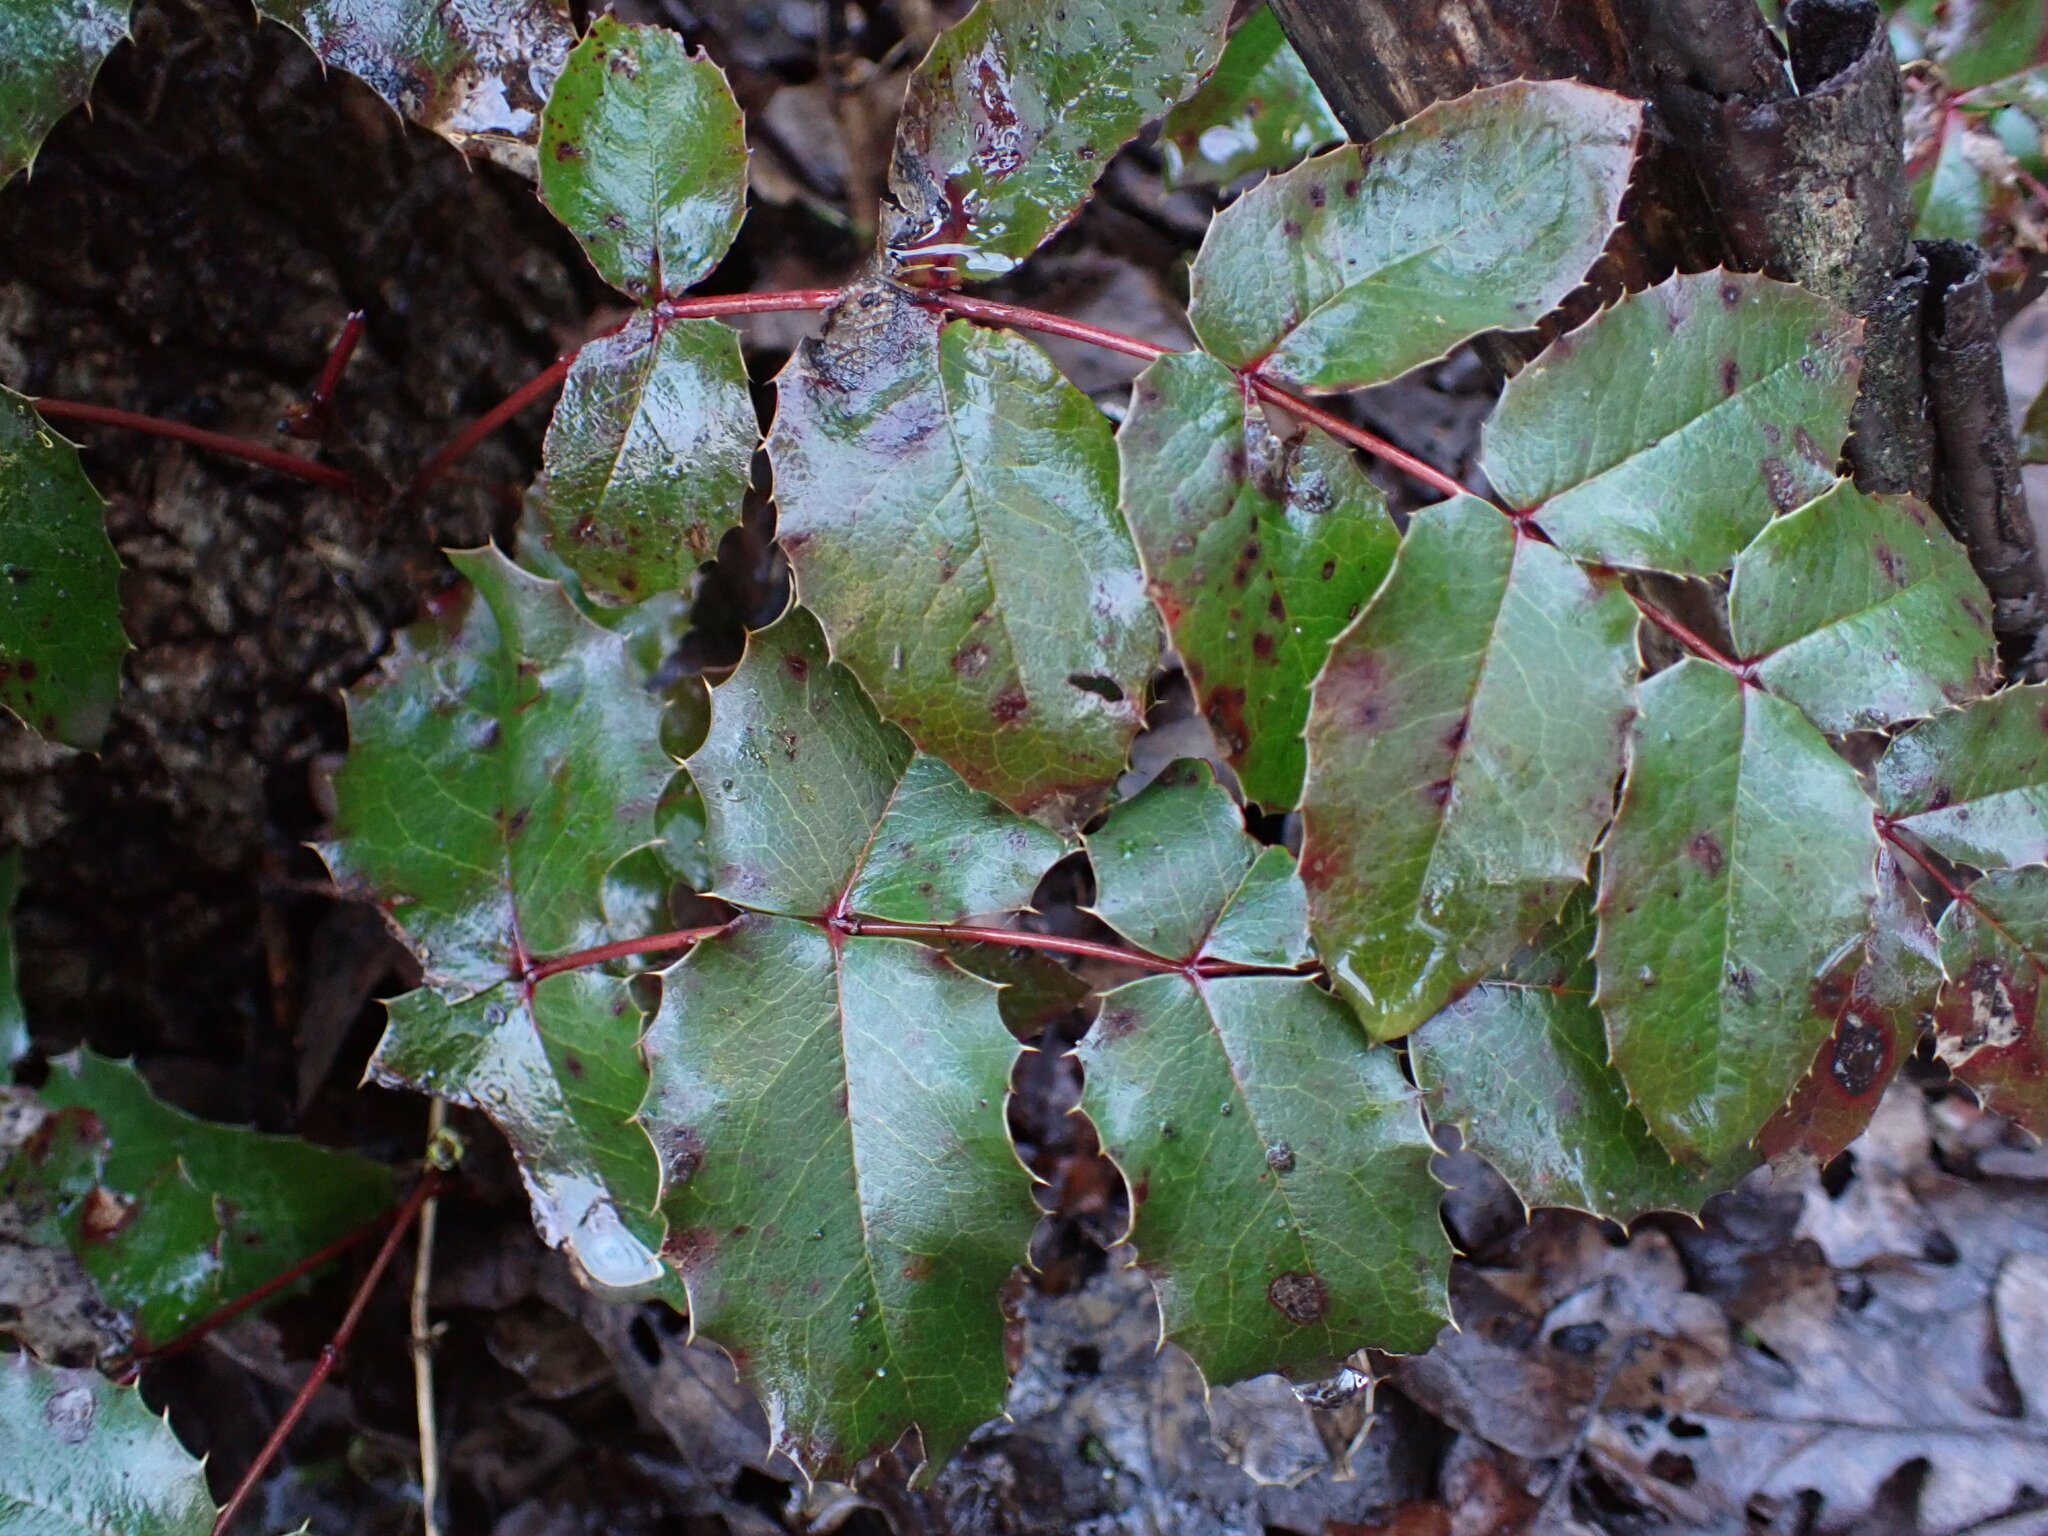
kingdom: Plantae
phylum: Tracheophyta
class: Magnoliopsida
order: Ranunculales
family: Berberidaceae
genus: Mahonia
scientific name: Mahonia aquifolium
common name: Oregon-grape
